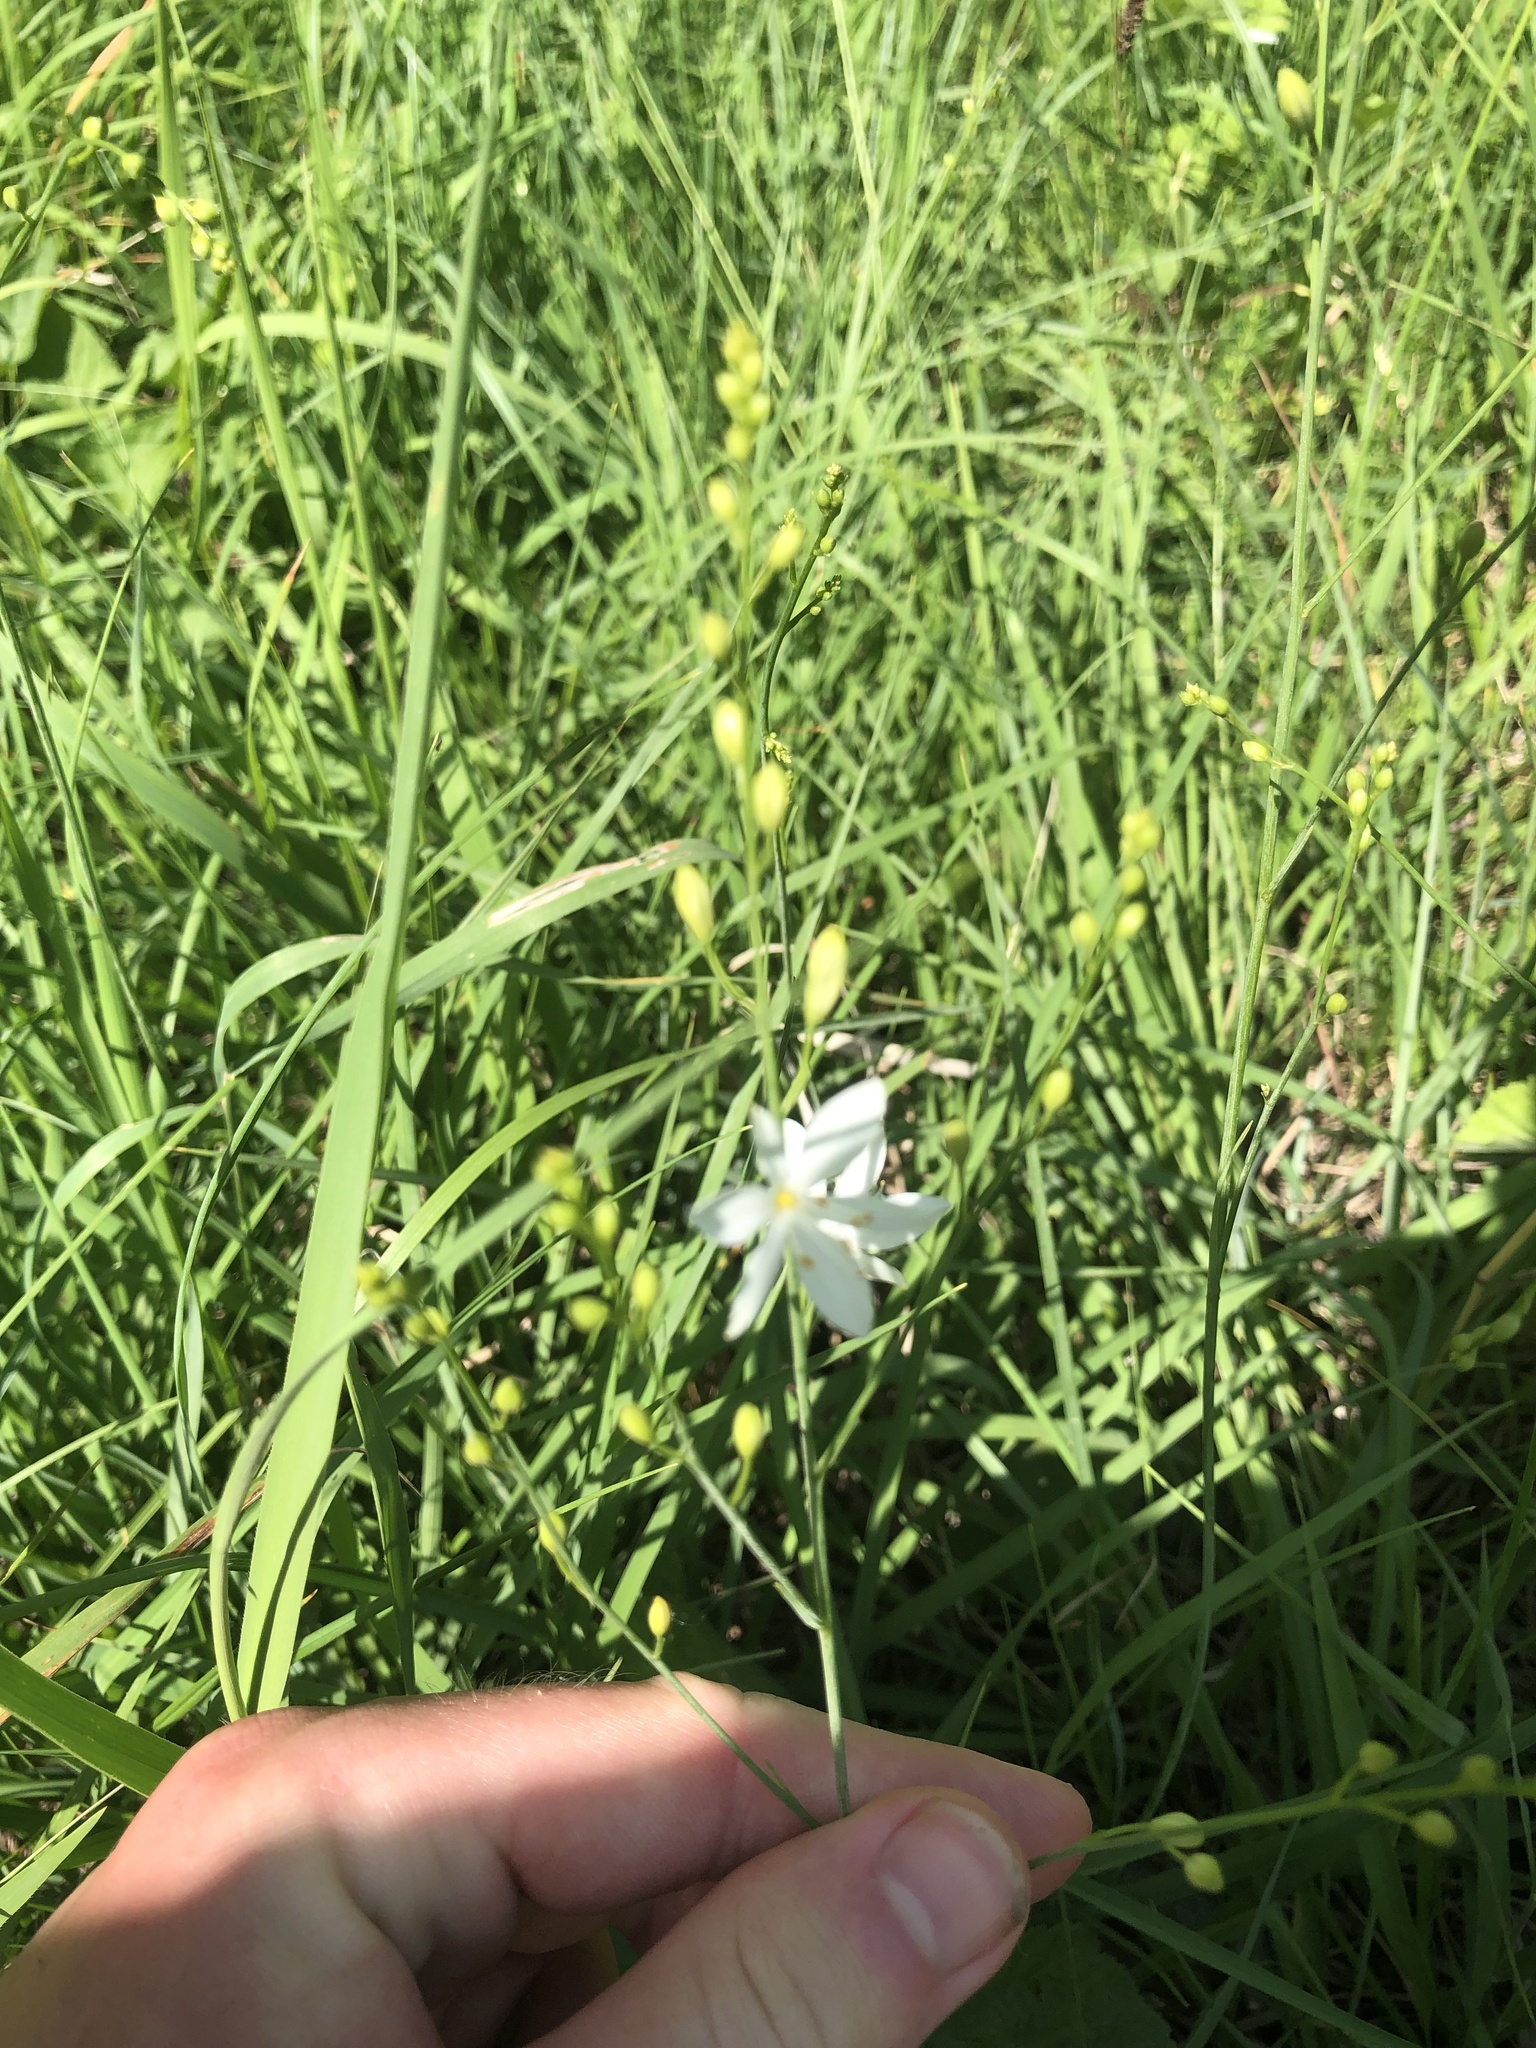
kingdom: Plantae
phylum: Tracheophyta
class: Liliopsida
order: Asparagales
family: Asparagaceae
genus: Anthericum
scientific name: Anthericum ramosum
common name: Branched st. bernard's-lily
